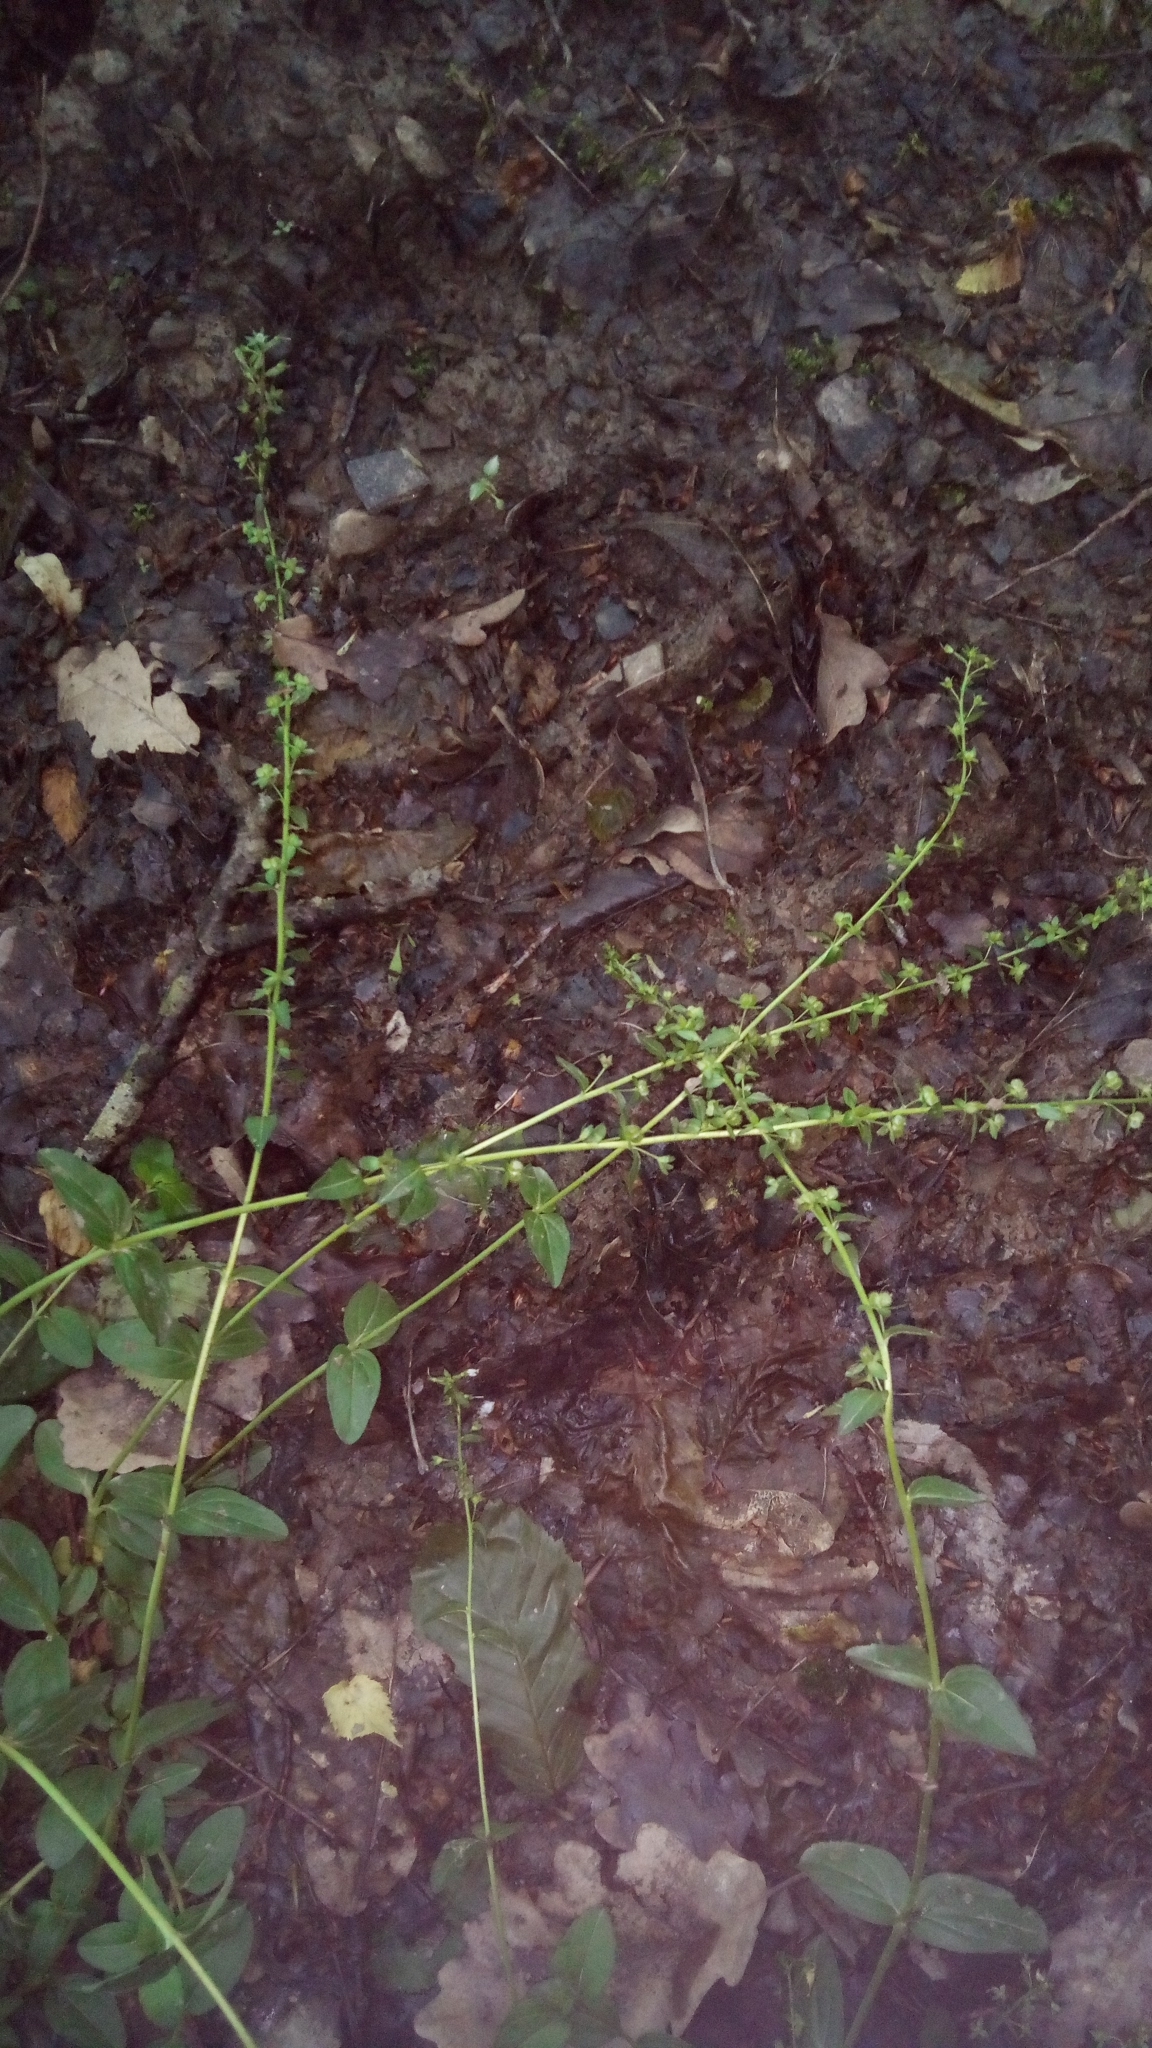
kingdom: Plantae
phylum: Tracheophyta
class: Magnoliopsida
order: Lamiales
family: Plantaginaceae
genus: Veronica
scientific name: Veronica serpyllifolia
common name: Thyme-leaved speedwell
